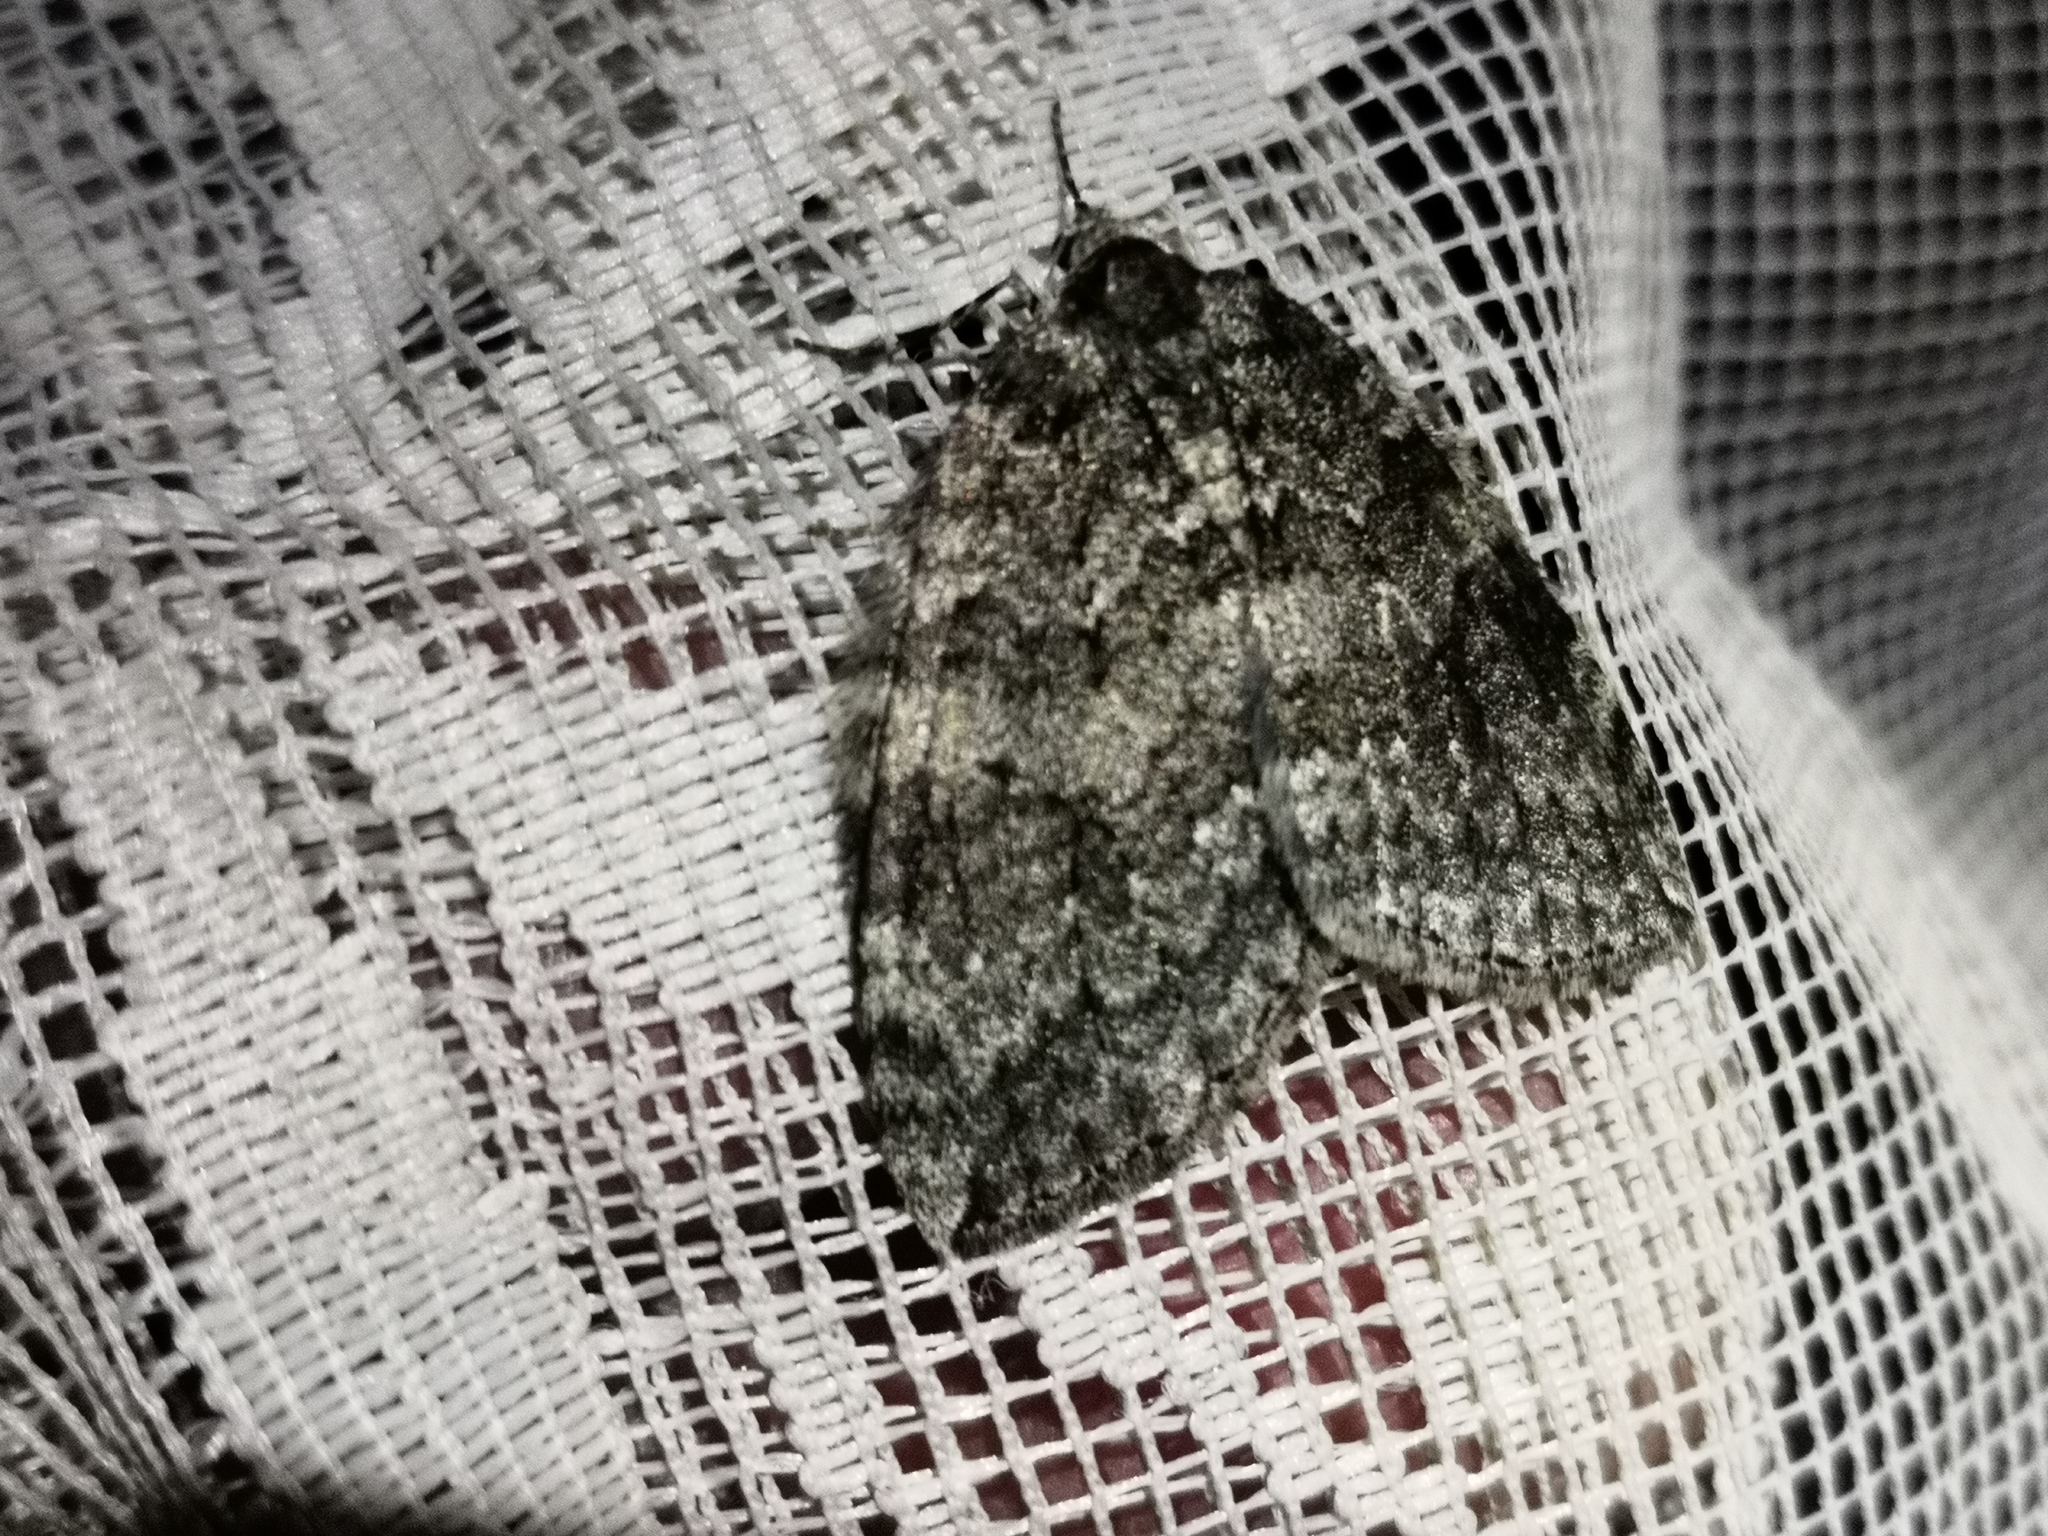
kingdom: Animalia
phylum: Arthropoda
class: Insecta
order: Lepidoptera
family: Geometridae
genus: Epirrita
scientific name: Epirrita dilutata
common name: November moth
